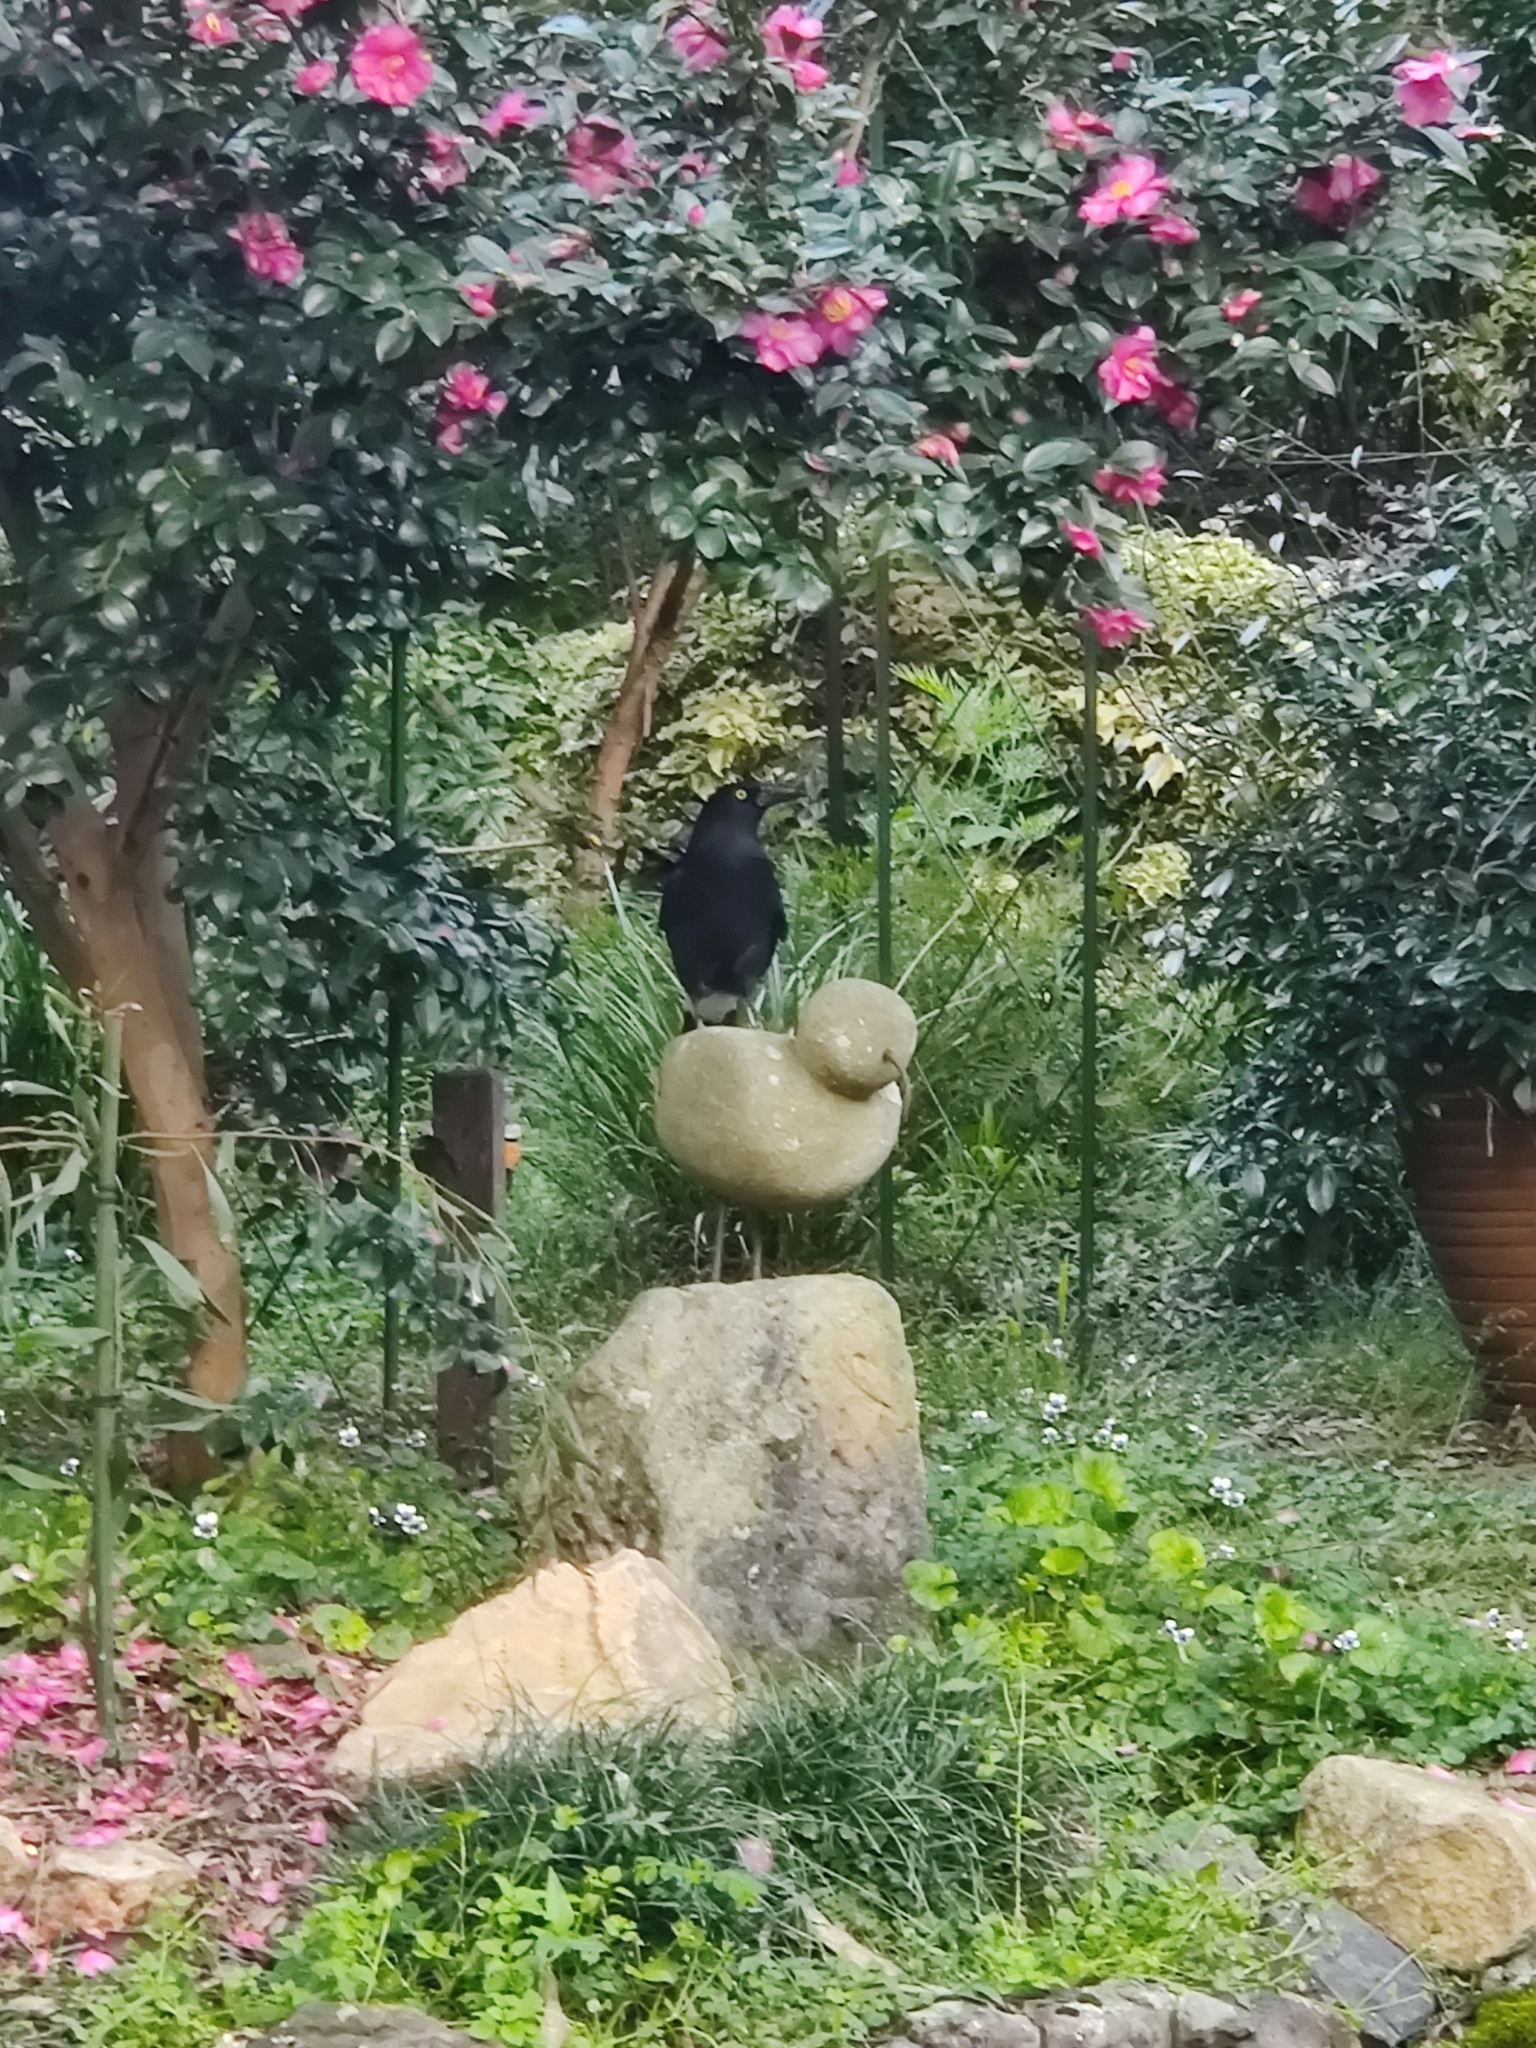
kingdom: Animalia
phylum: Chordata
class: Aves
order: Passeriformes
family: Cracticidae
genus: Strepera
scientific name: Strepera graculina
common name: Pied currawong
